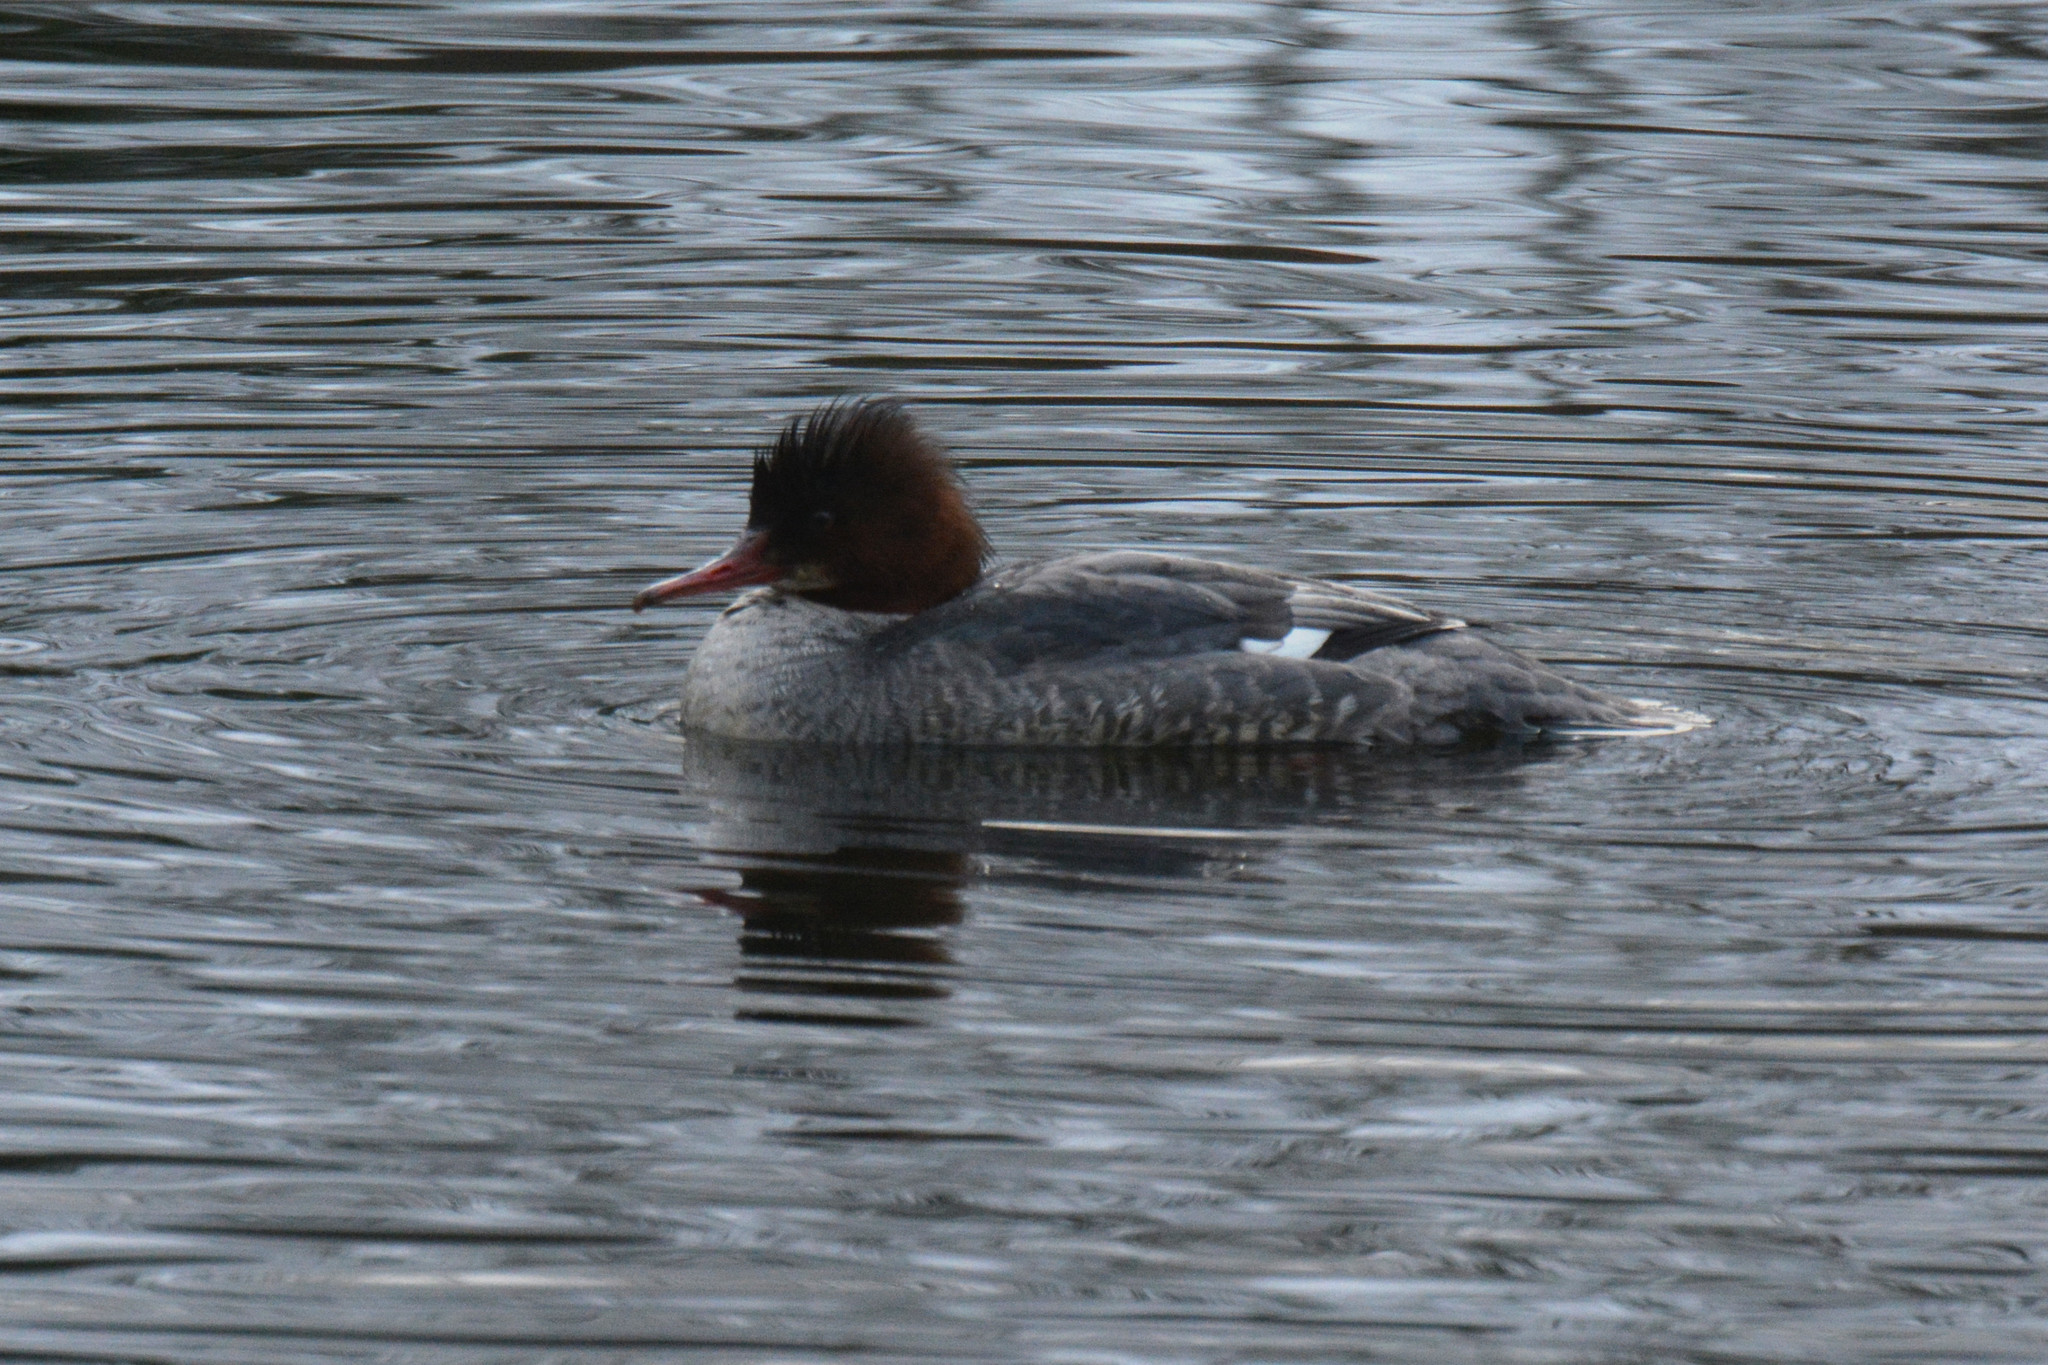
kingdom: Animalia
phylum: Chordata
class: Aves
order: Anseriformes
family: Anatidae
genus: Mergus
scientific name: Mergus merganser
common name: Common merganser
